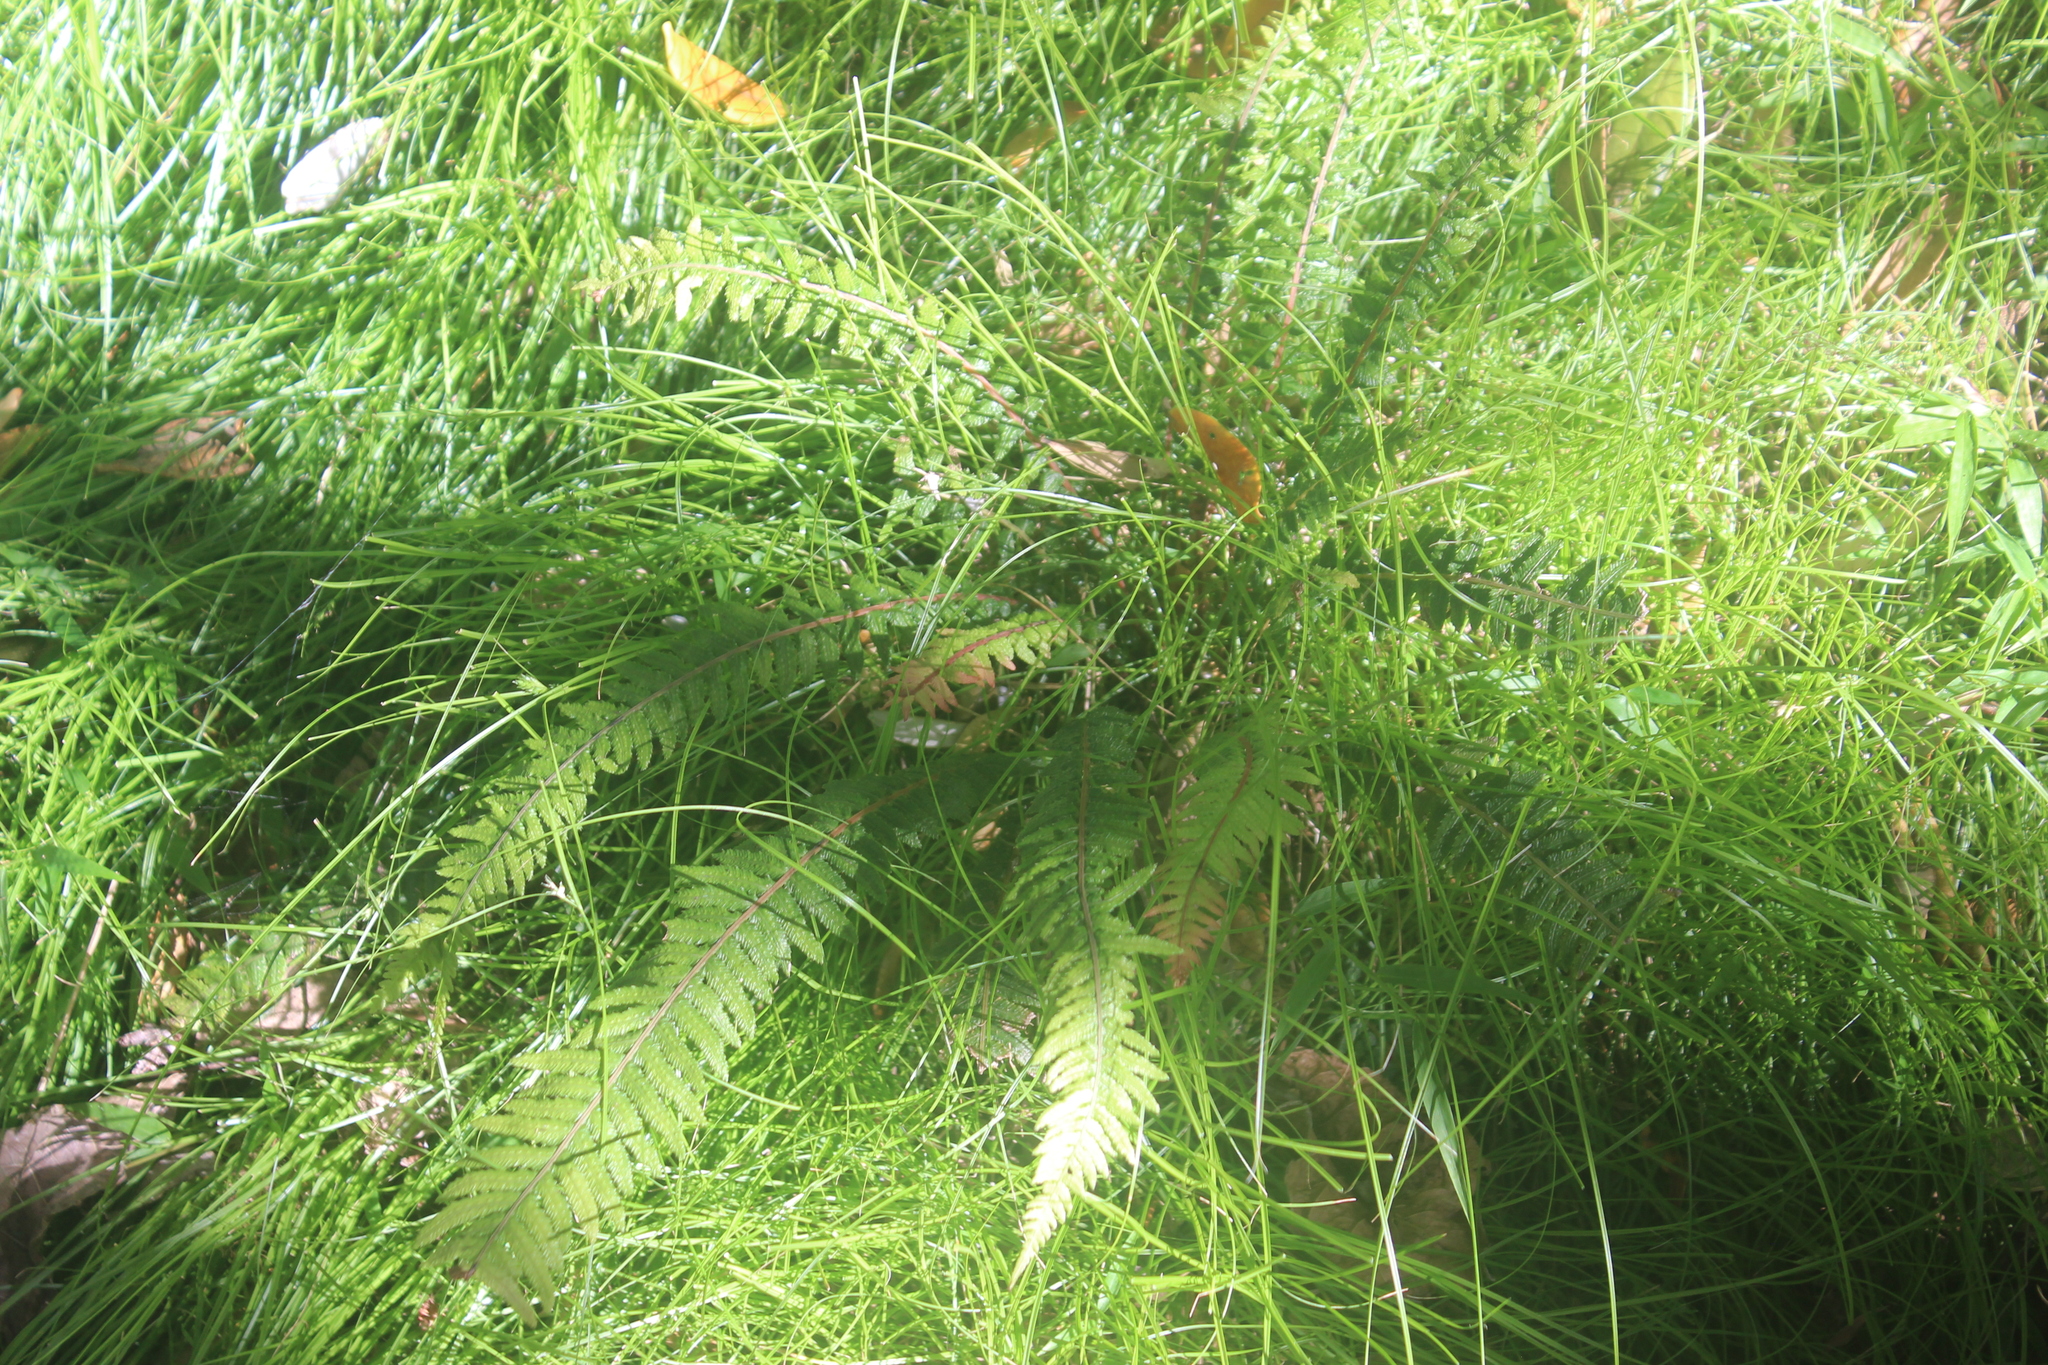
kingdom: Plantae
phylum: Tracheophyta
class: Polypodiopsida
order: Polypodiales
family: Blechnaceae
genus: Doodia
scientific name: Doodia australis
